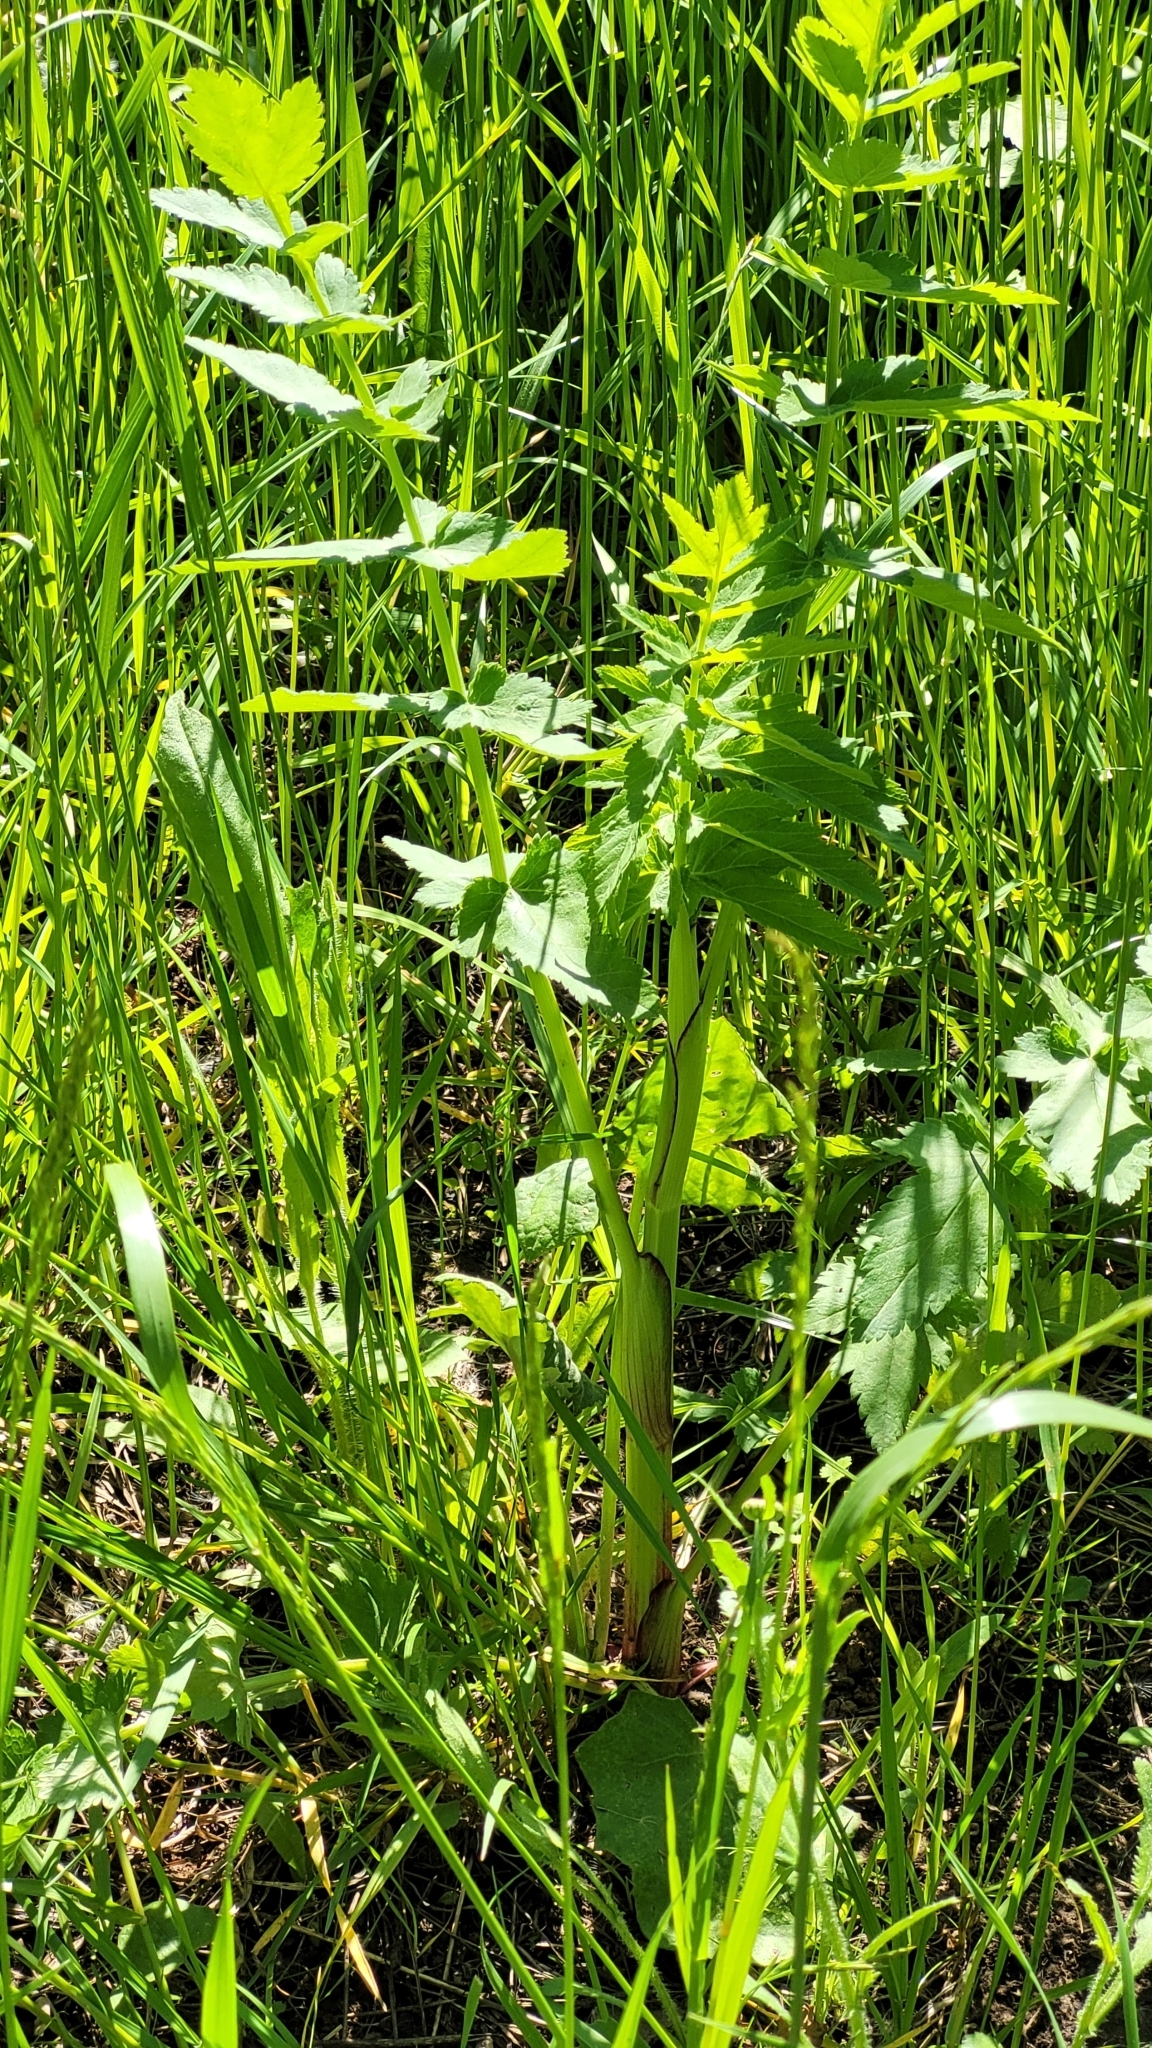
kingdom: Plantae
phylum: Tracheophyta
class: Magnoliopsida
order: Apiales
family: Apiaceae
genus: Pastinaca
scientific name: Pastinaca sativa
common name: Wild parsnip
